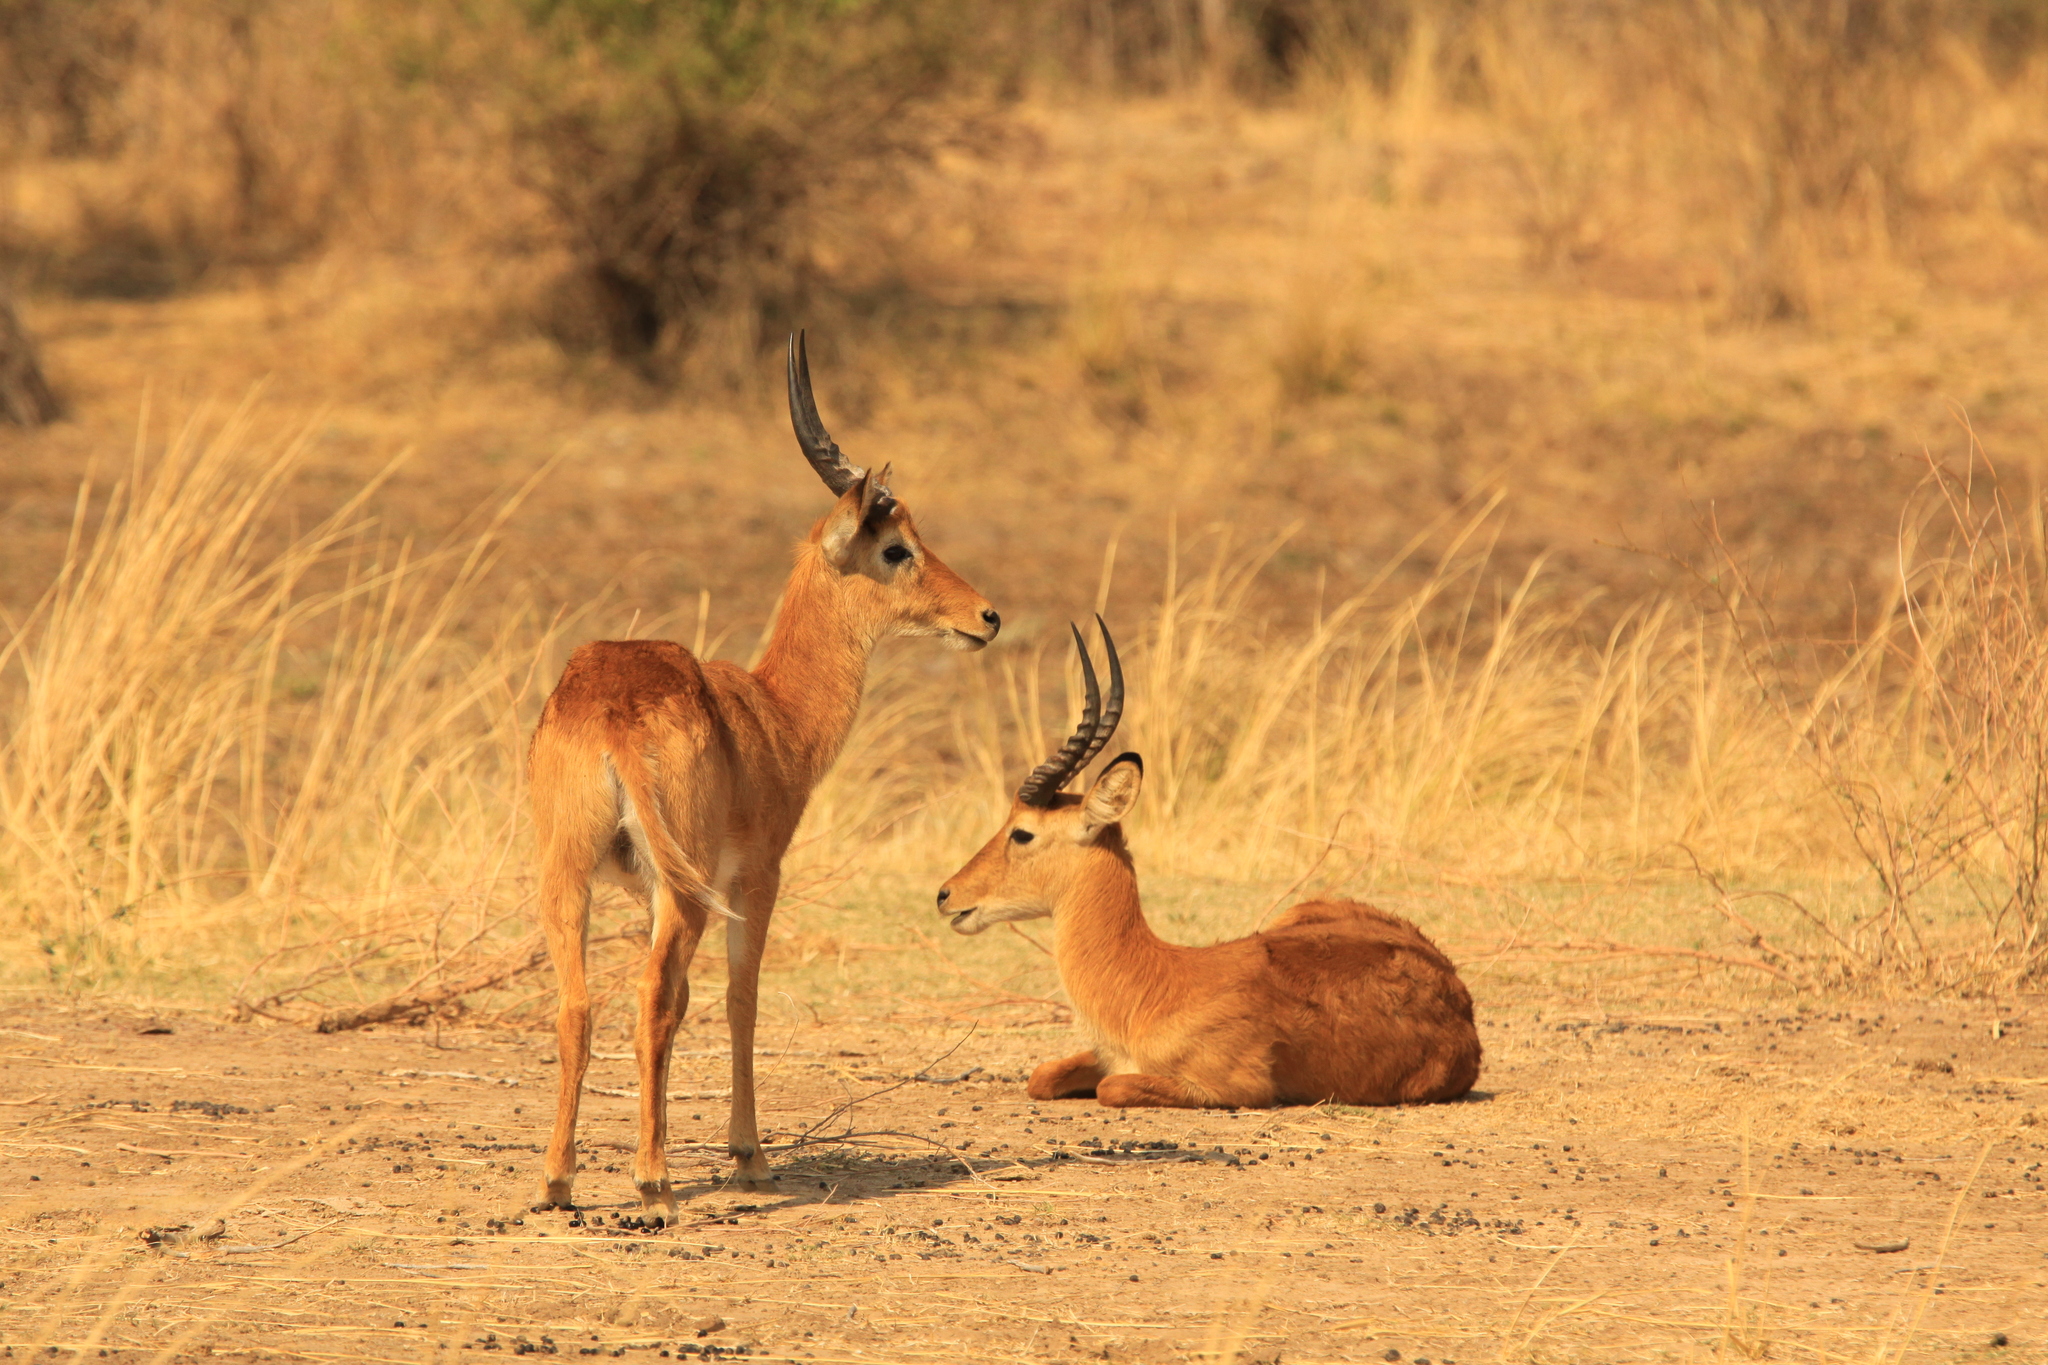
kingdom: Animalia
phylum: Chordata
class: Mammalia
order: Artiodactyla
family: Bovidae
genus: Kobus
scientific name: Kobus vardonii
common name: Puku
